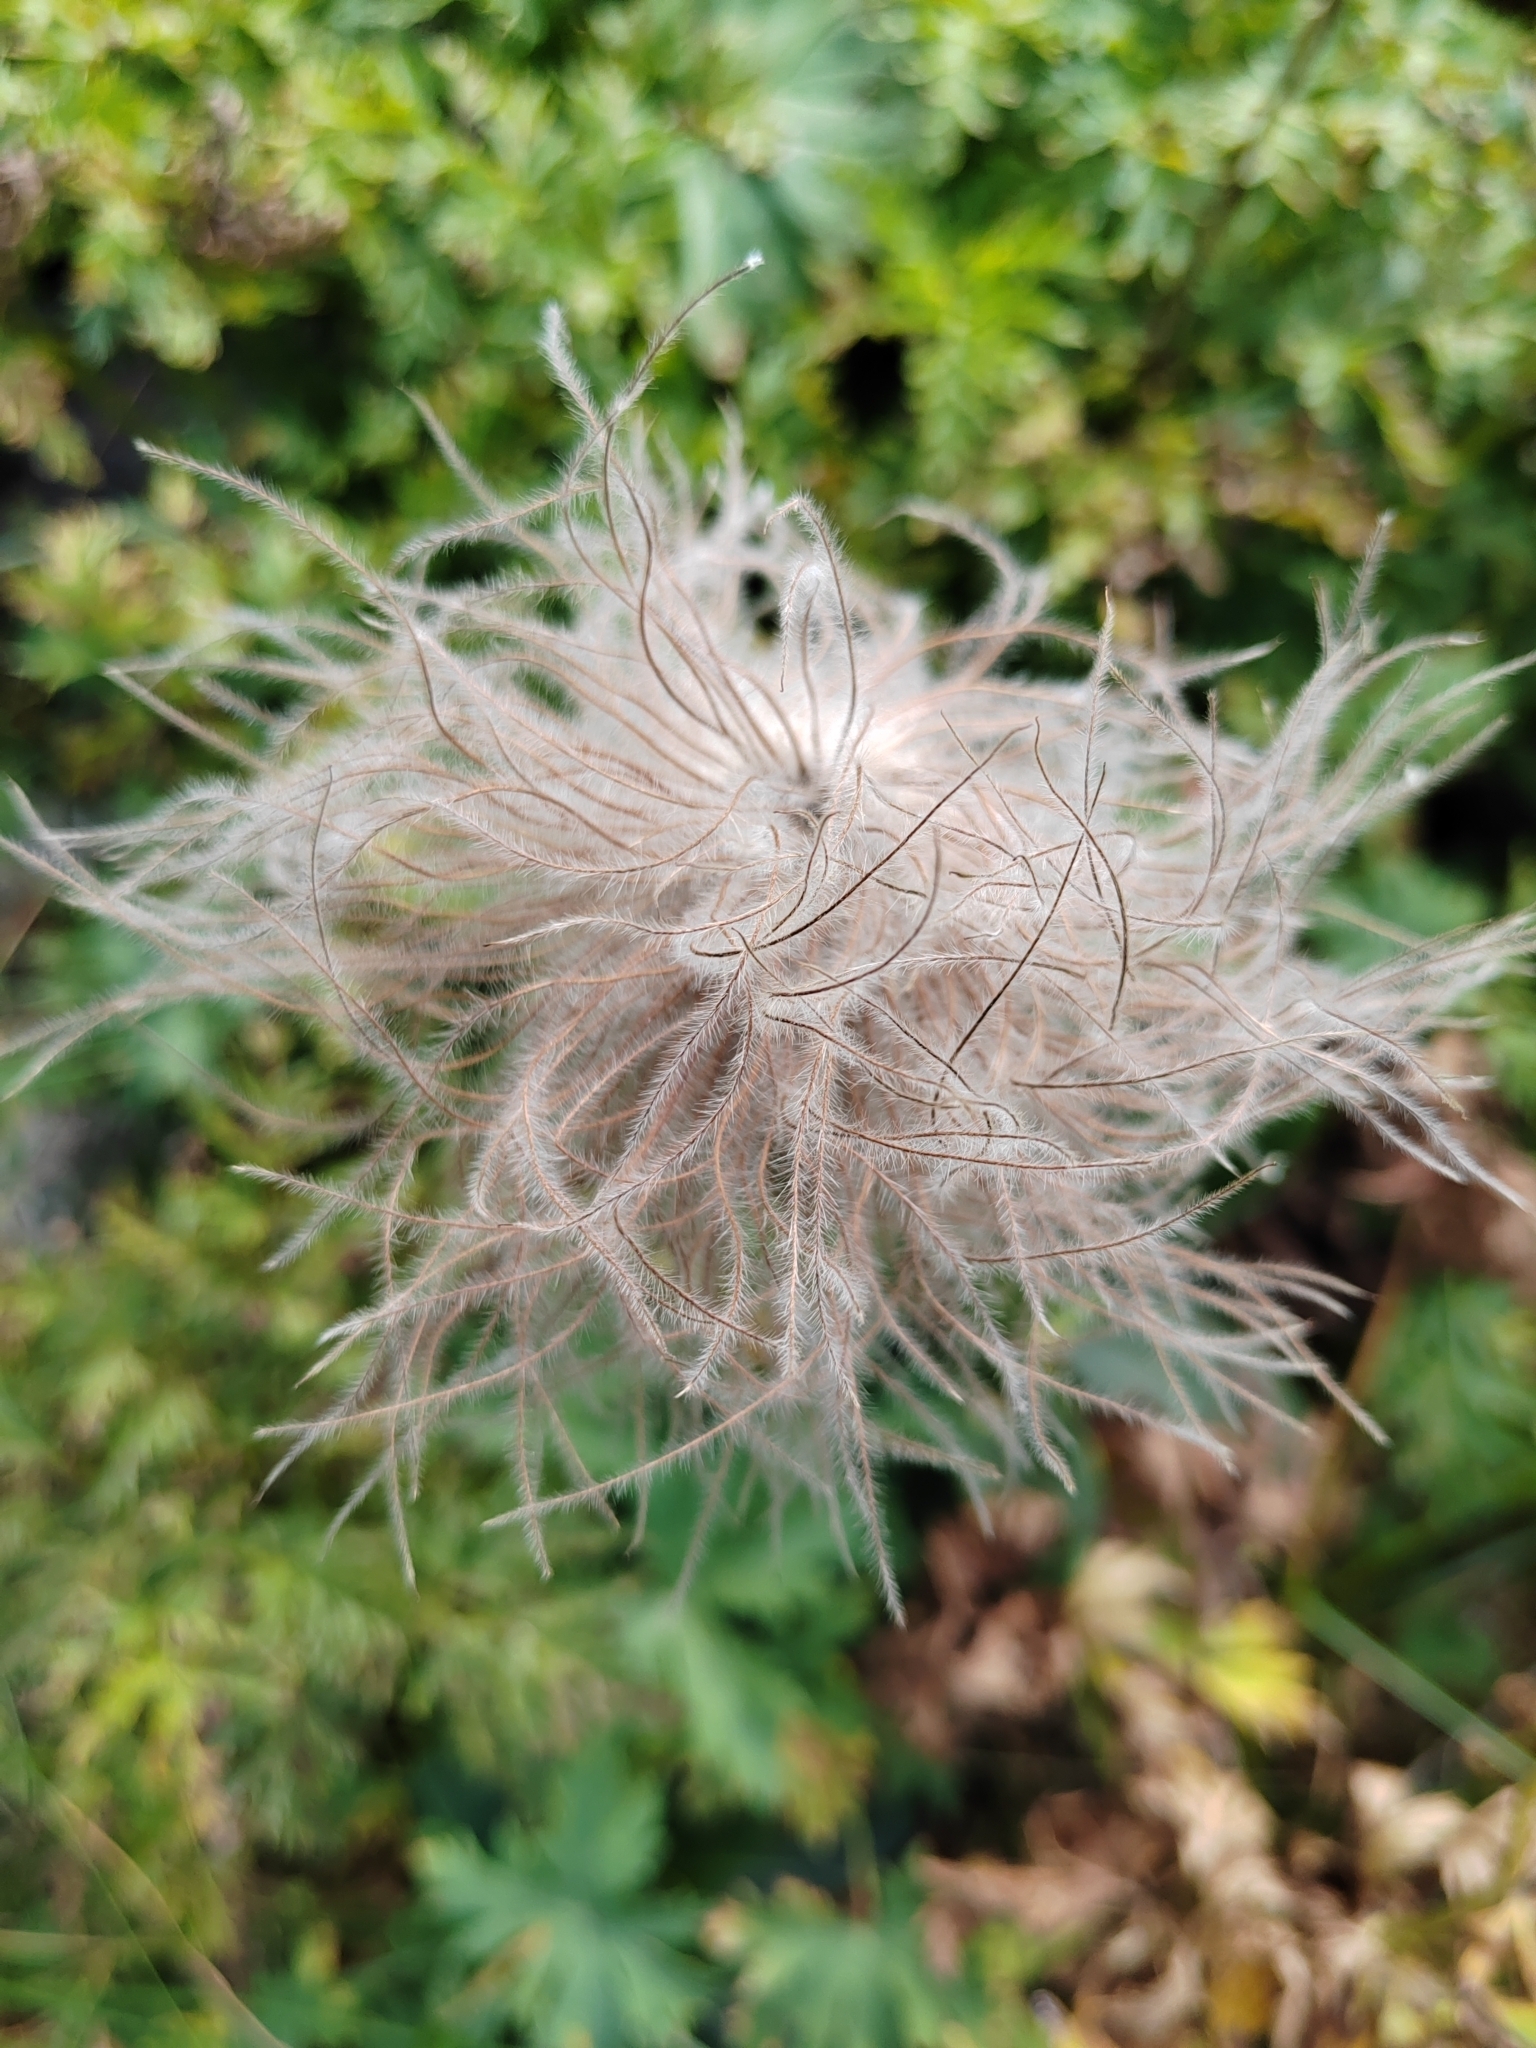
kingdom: Plantae
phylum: Tracheophyta
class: Magnoliopsida
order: Ranunculales
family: Ranunculaceae
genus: Pulsatilla
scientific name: Pulsatilla aurea
